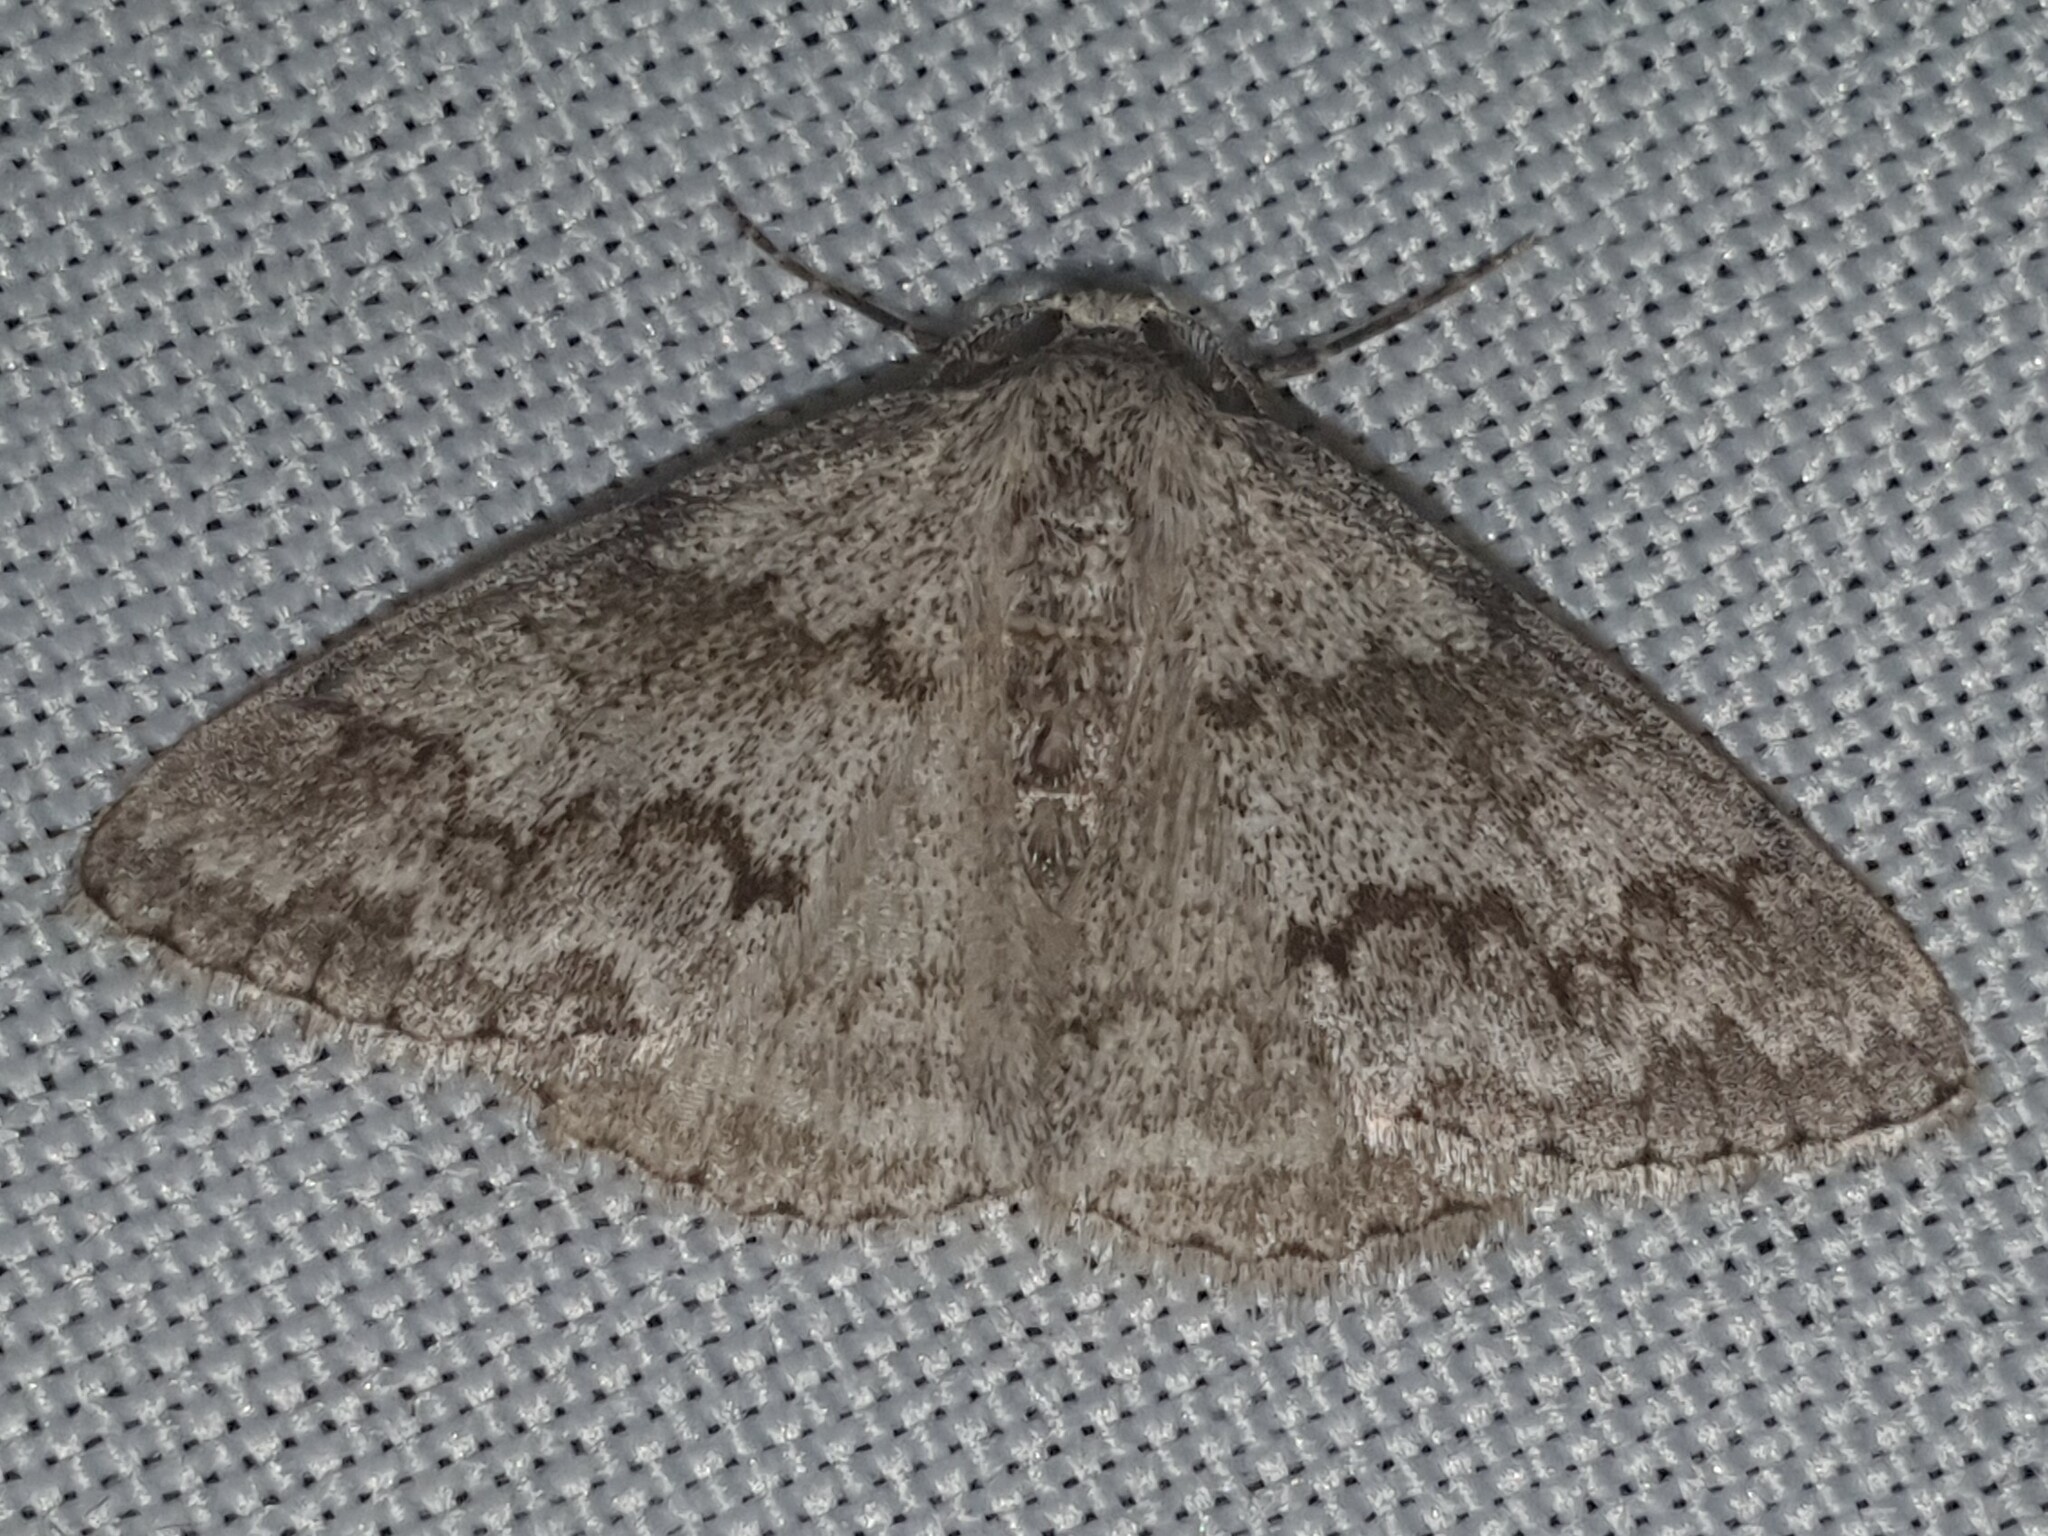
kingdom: Animalia
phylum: Arthropoda
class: Insecta
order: Lepidoptera
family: Geometridae
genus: Pseudoterpna
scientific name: Pseudoterpna coronillaria
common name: Jersey emerald
